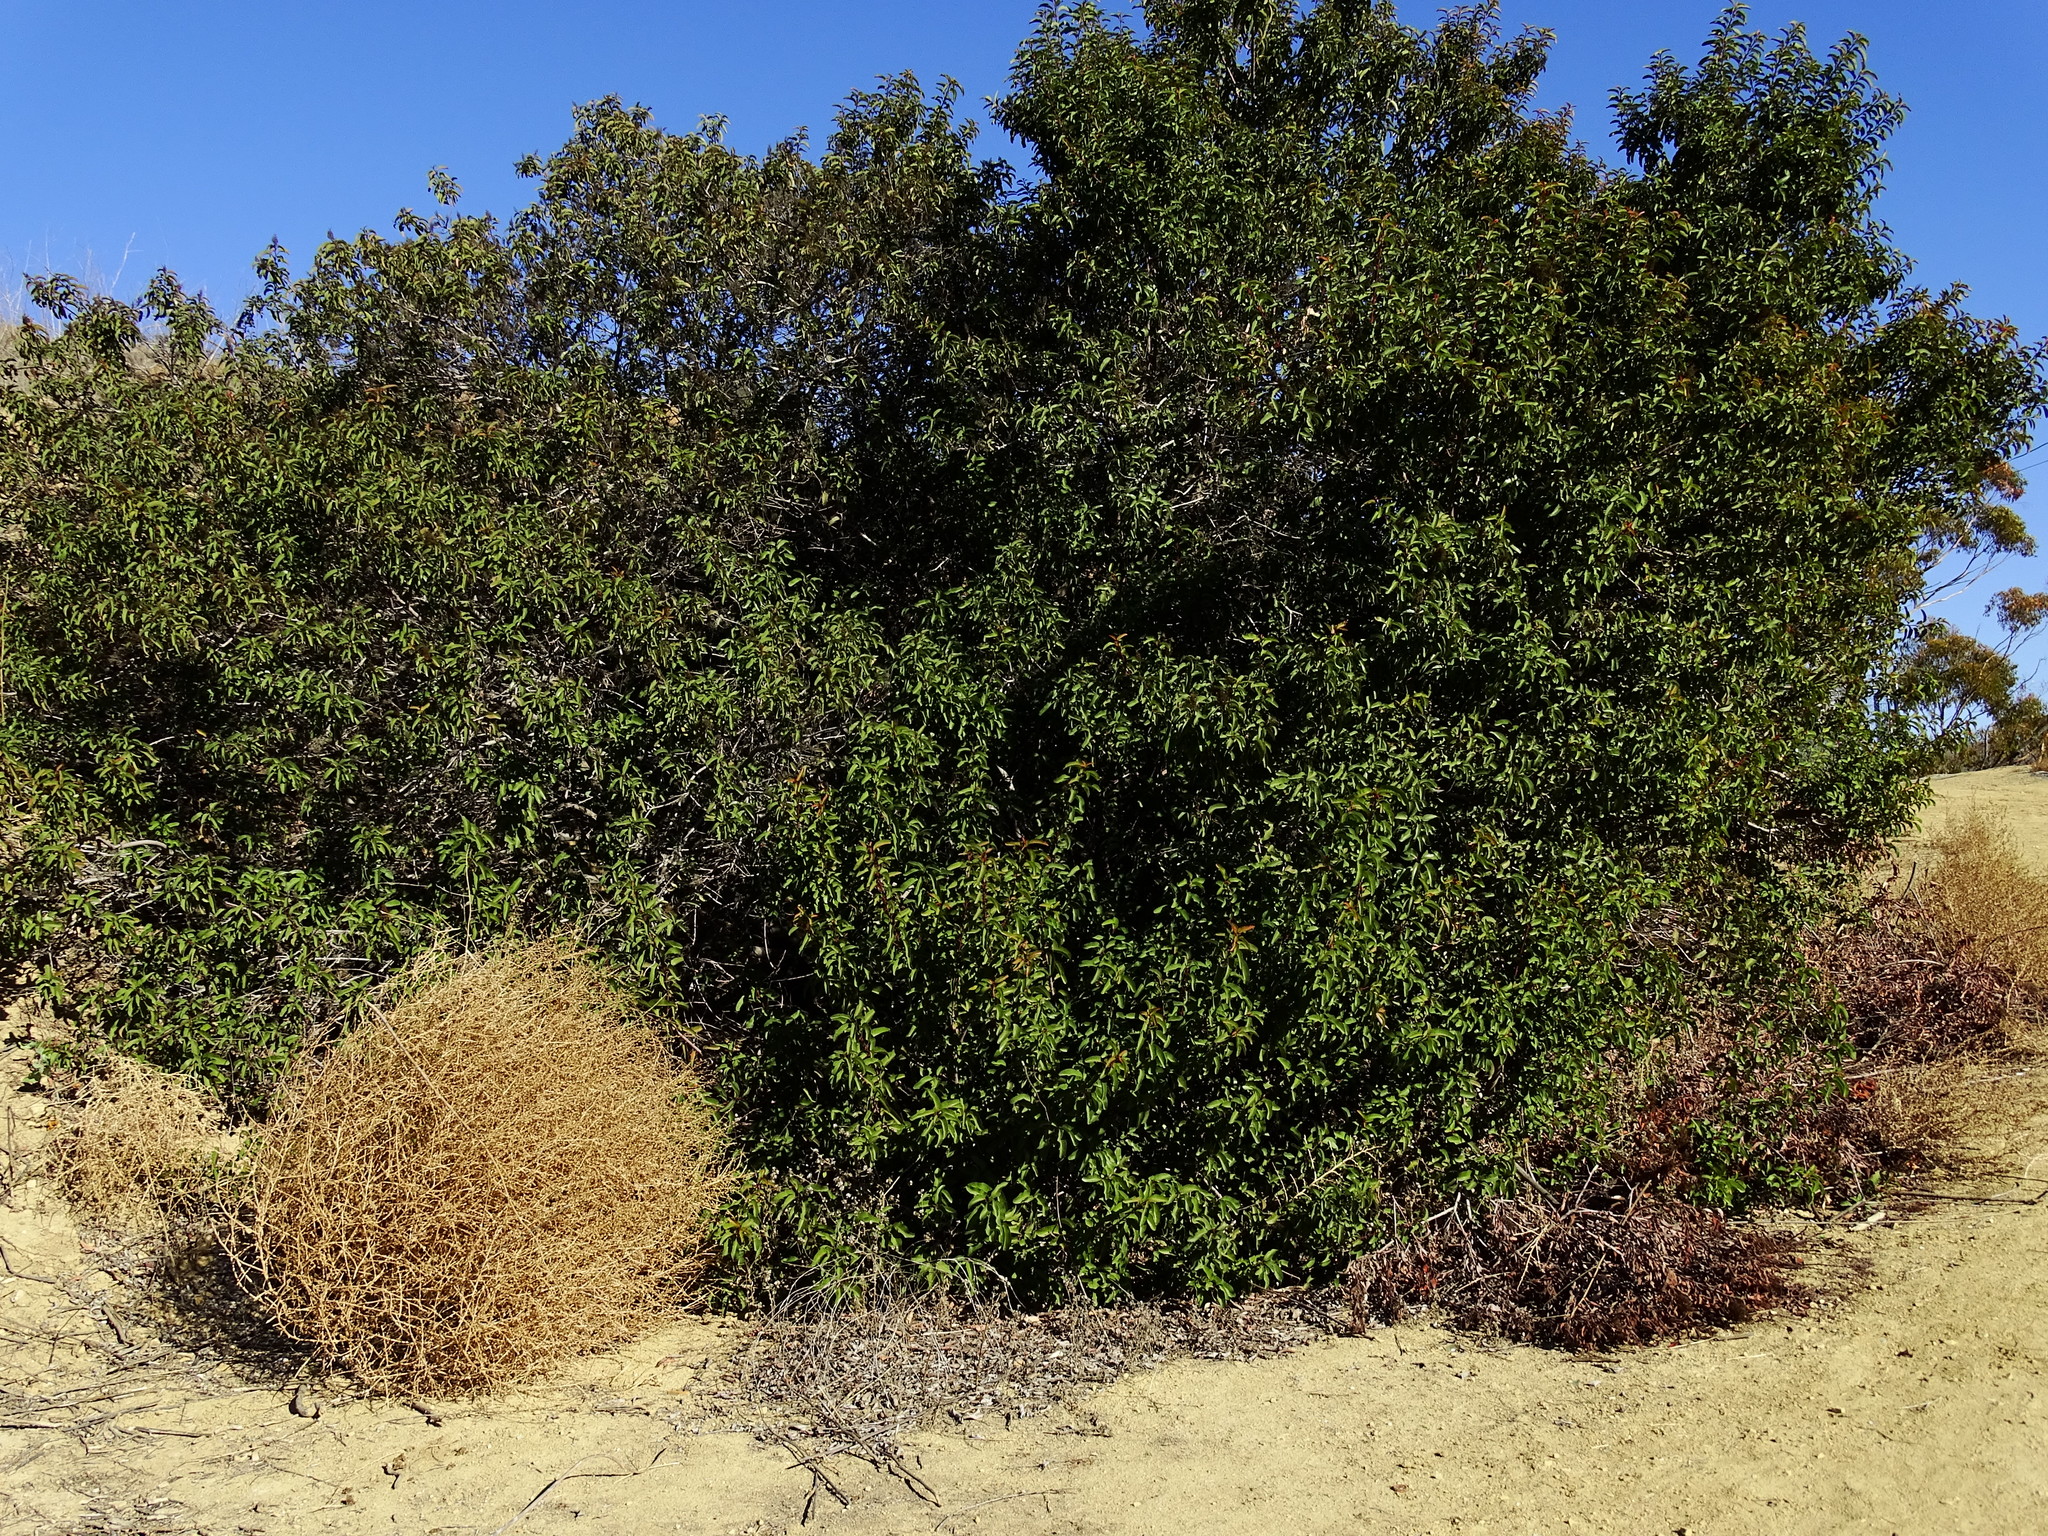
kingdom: Plantae
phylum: Tracheophyta
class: Magnoliopsida
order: Sapindales
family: Anacardiaceae
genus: Malosma
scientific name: Malosma laurina
